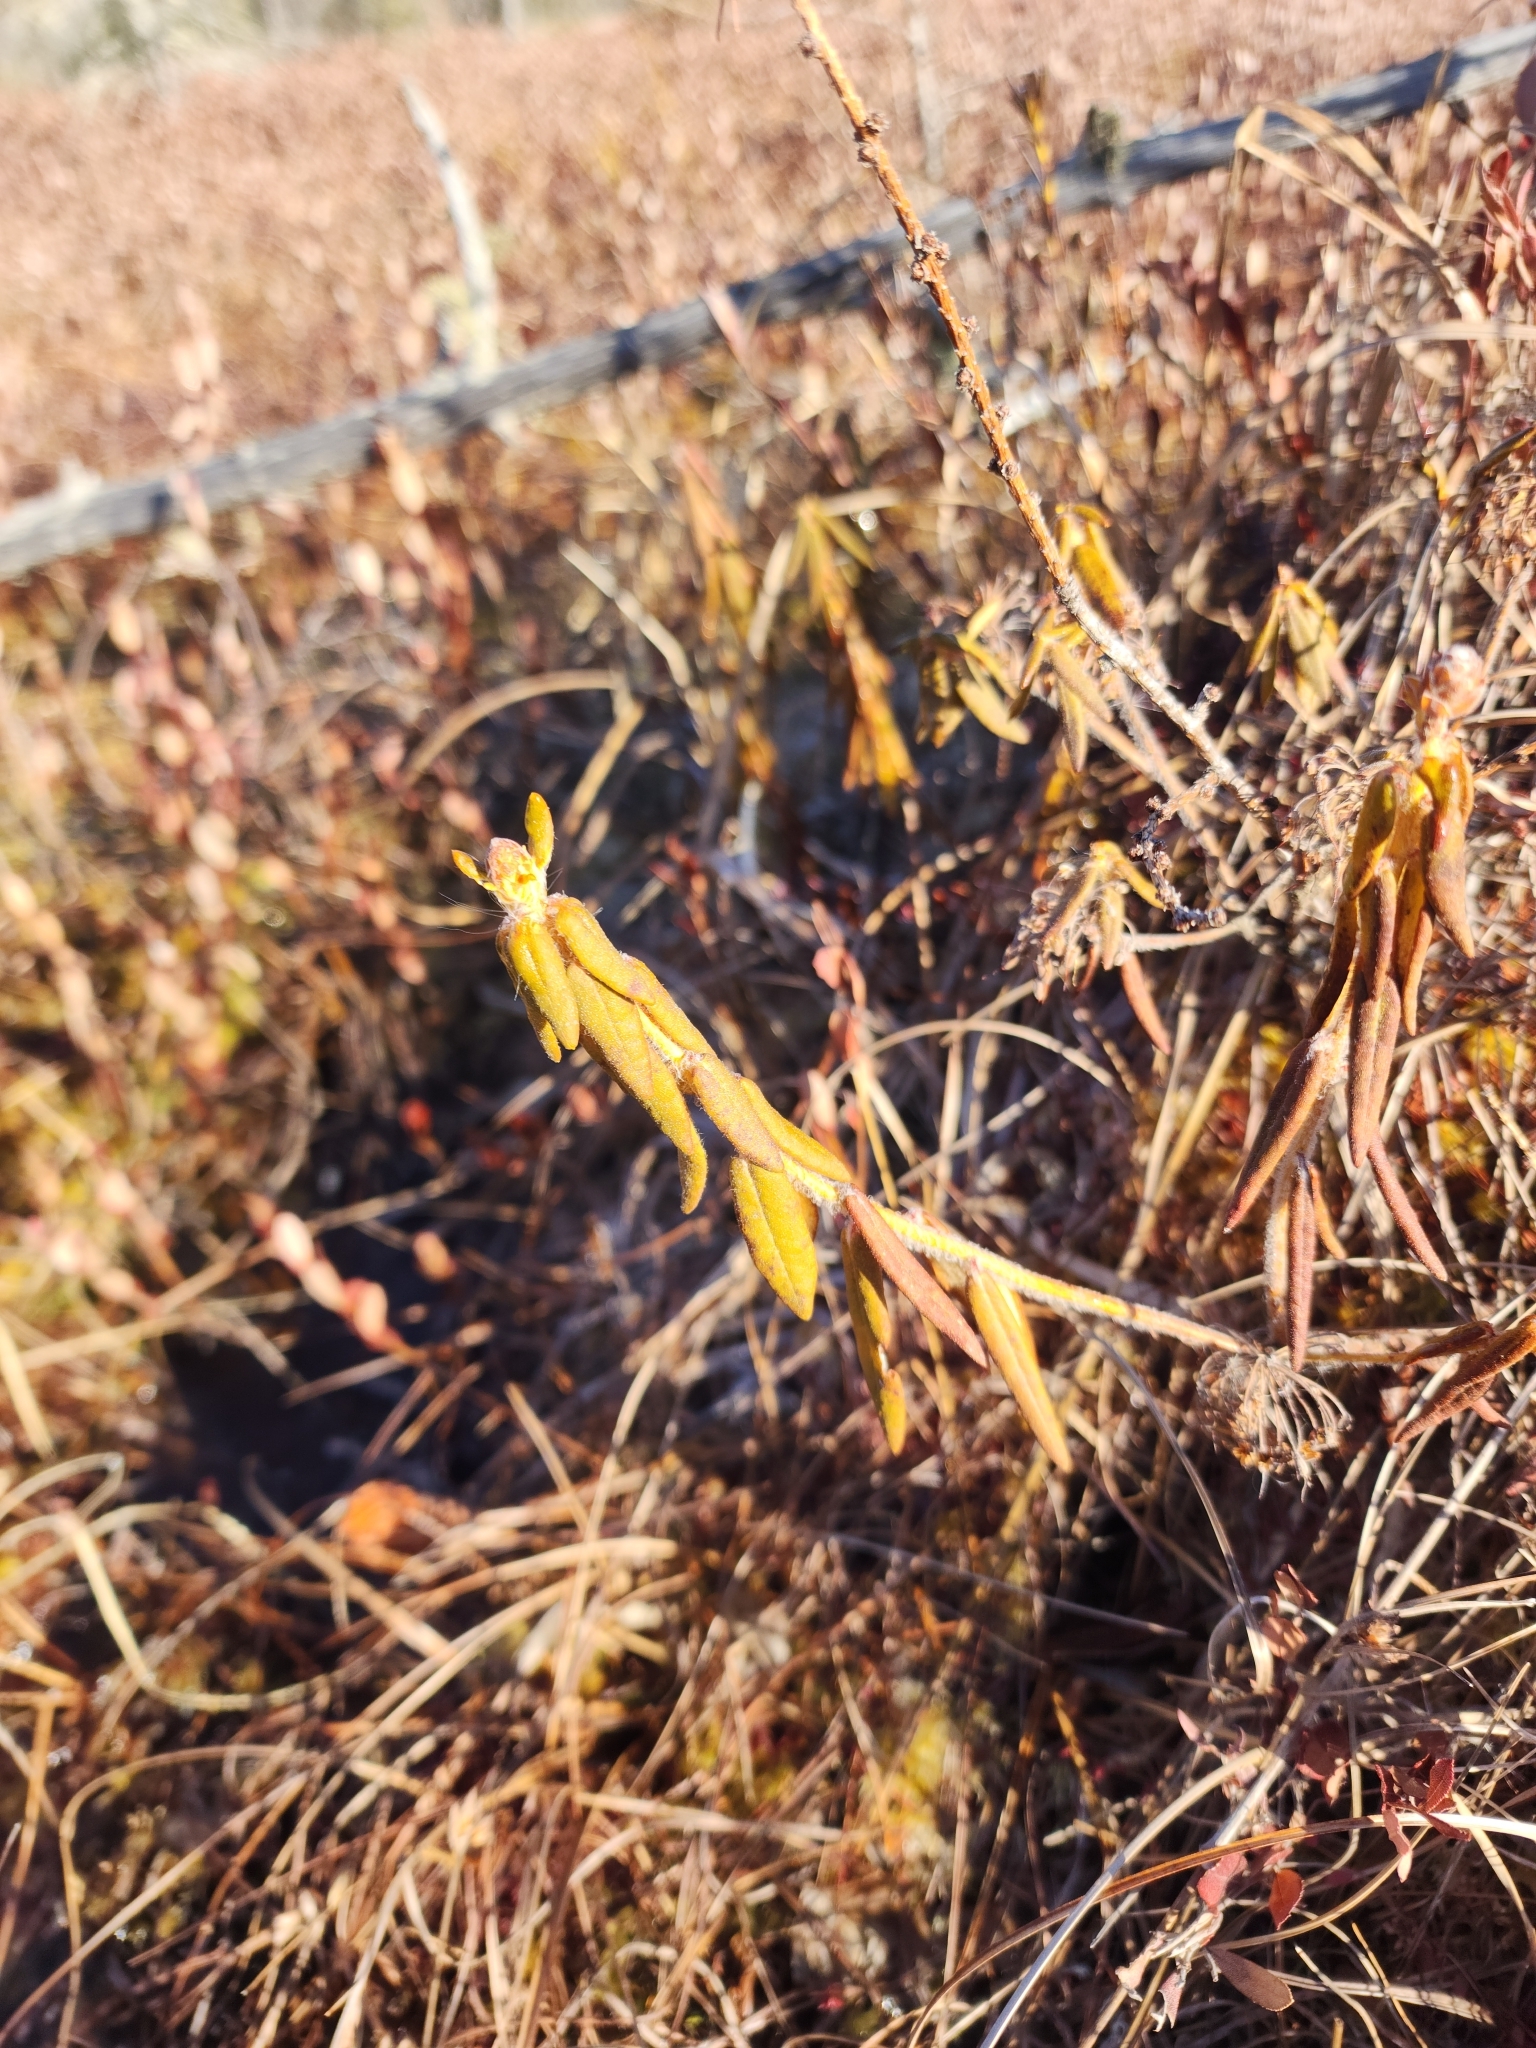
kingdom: Plantae
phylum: Tracheophyta
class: Magnoliopsida
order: Ericales
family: Ericaceae
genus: Rhododendron
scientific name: Rhododendron groenlandicum
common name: Bog labrador tea
